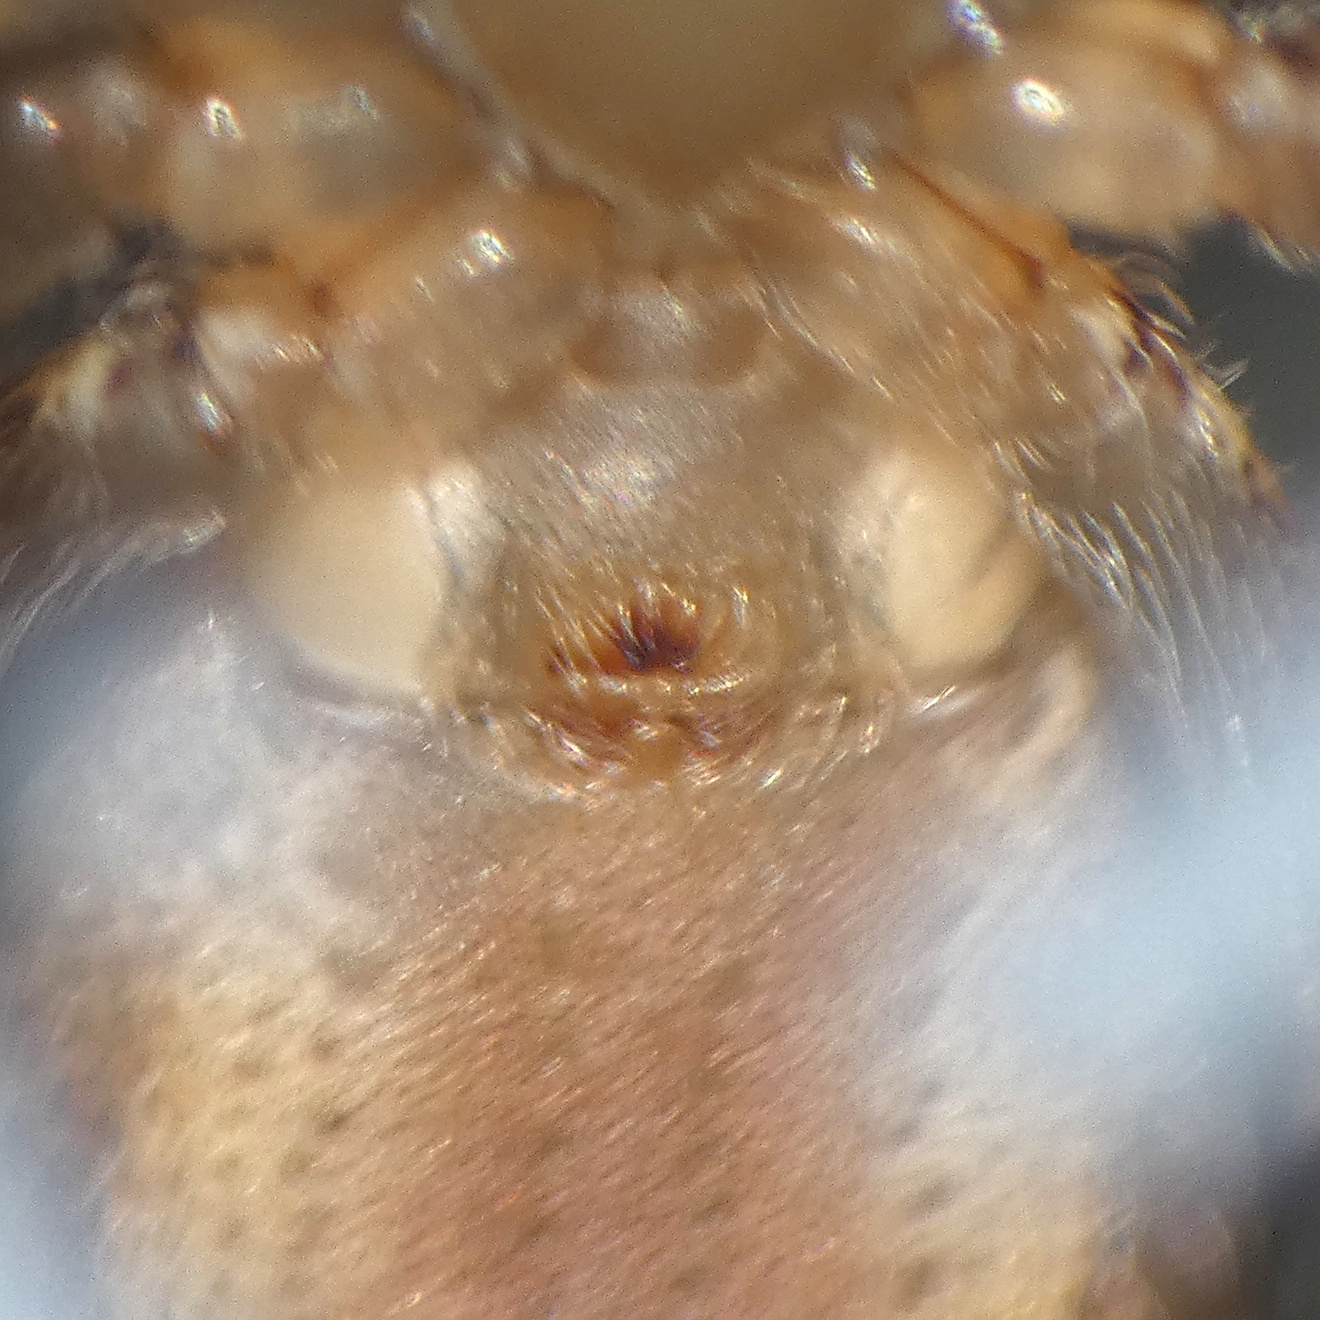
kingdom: Animalia
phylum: Arthropoda
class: Arachnida
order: Araneae
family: Thomisidae
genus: Tmarus
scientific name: Tmarus comellinii
